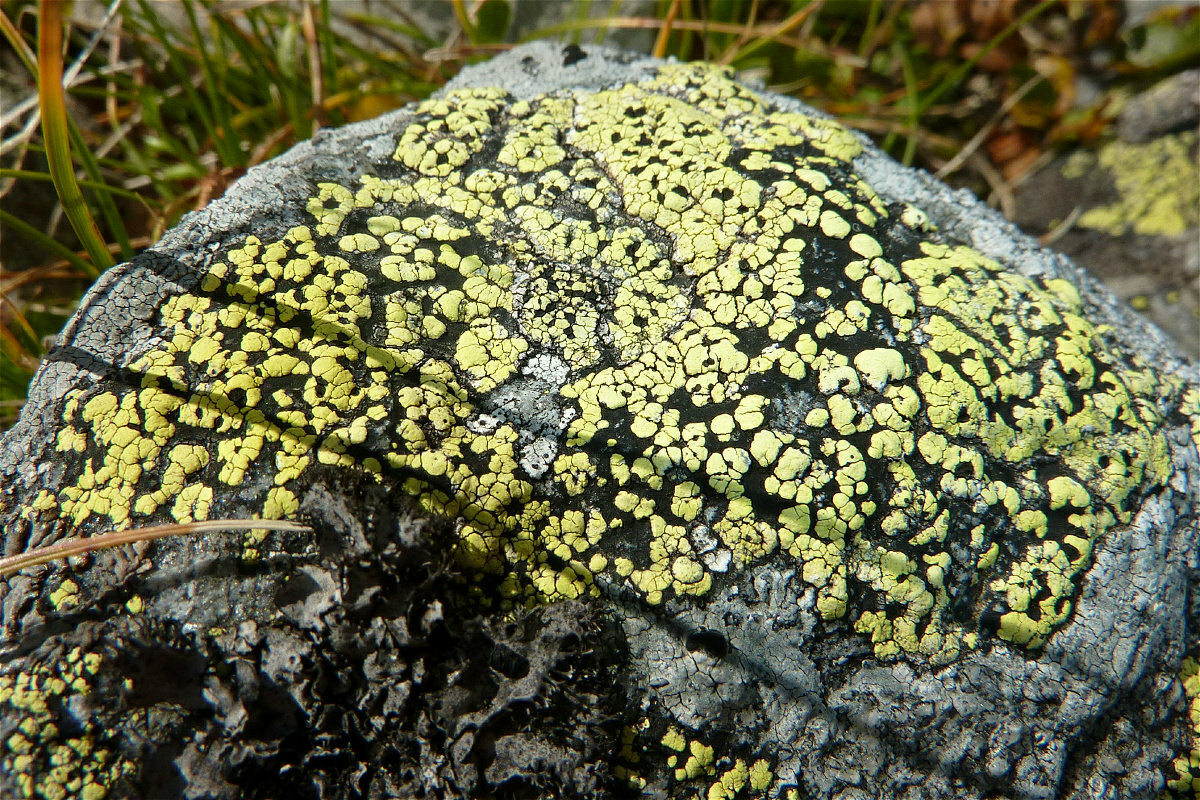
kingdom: Fungi
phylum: Ascomycota
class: Lecanoromycetes
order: Rhizocarpales
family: Rhizocarpaceae
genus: Rhizocarpon
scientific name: Rhizocarpon geographicum
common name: Yellow map lichen
